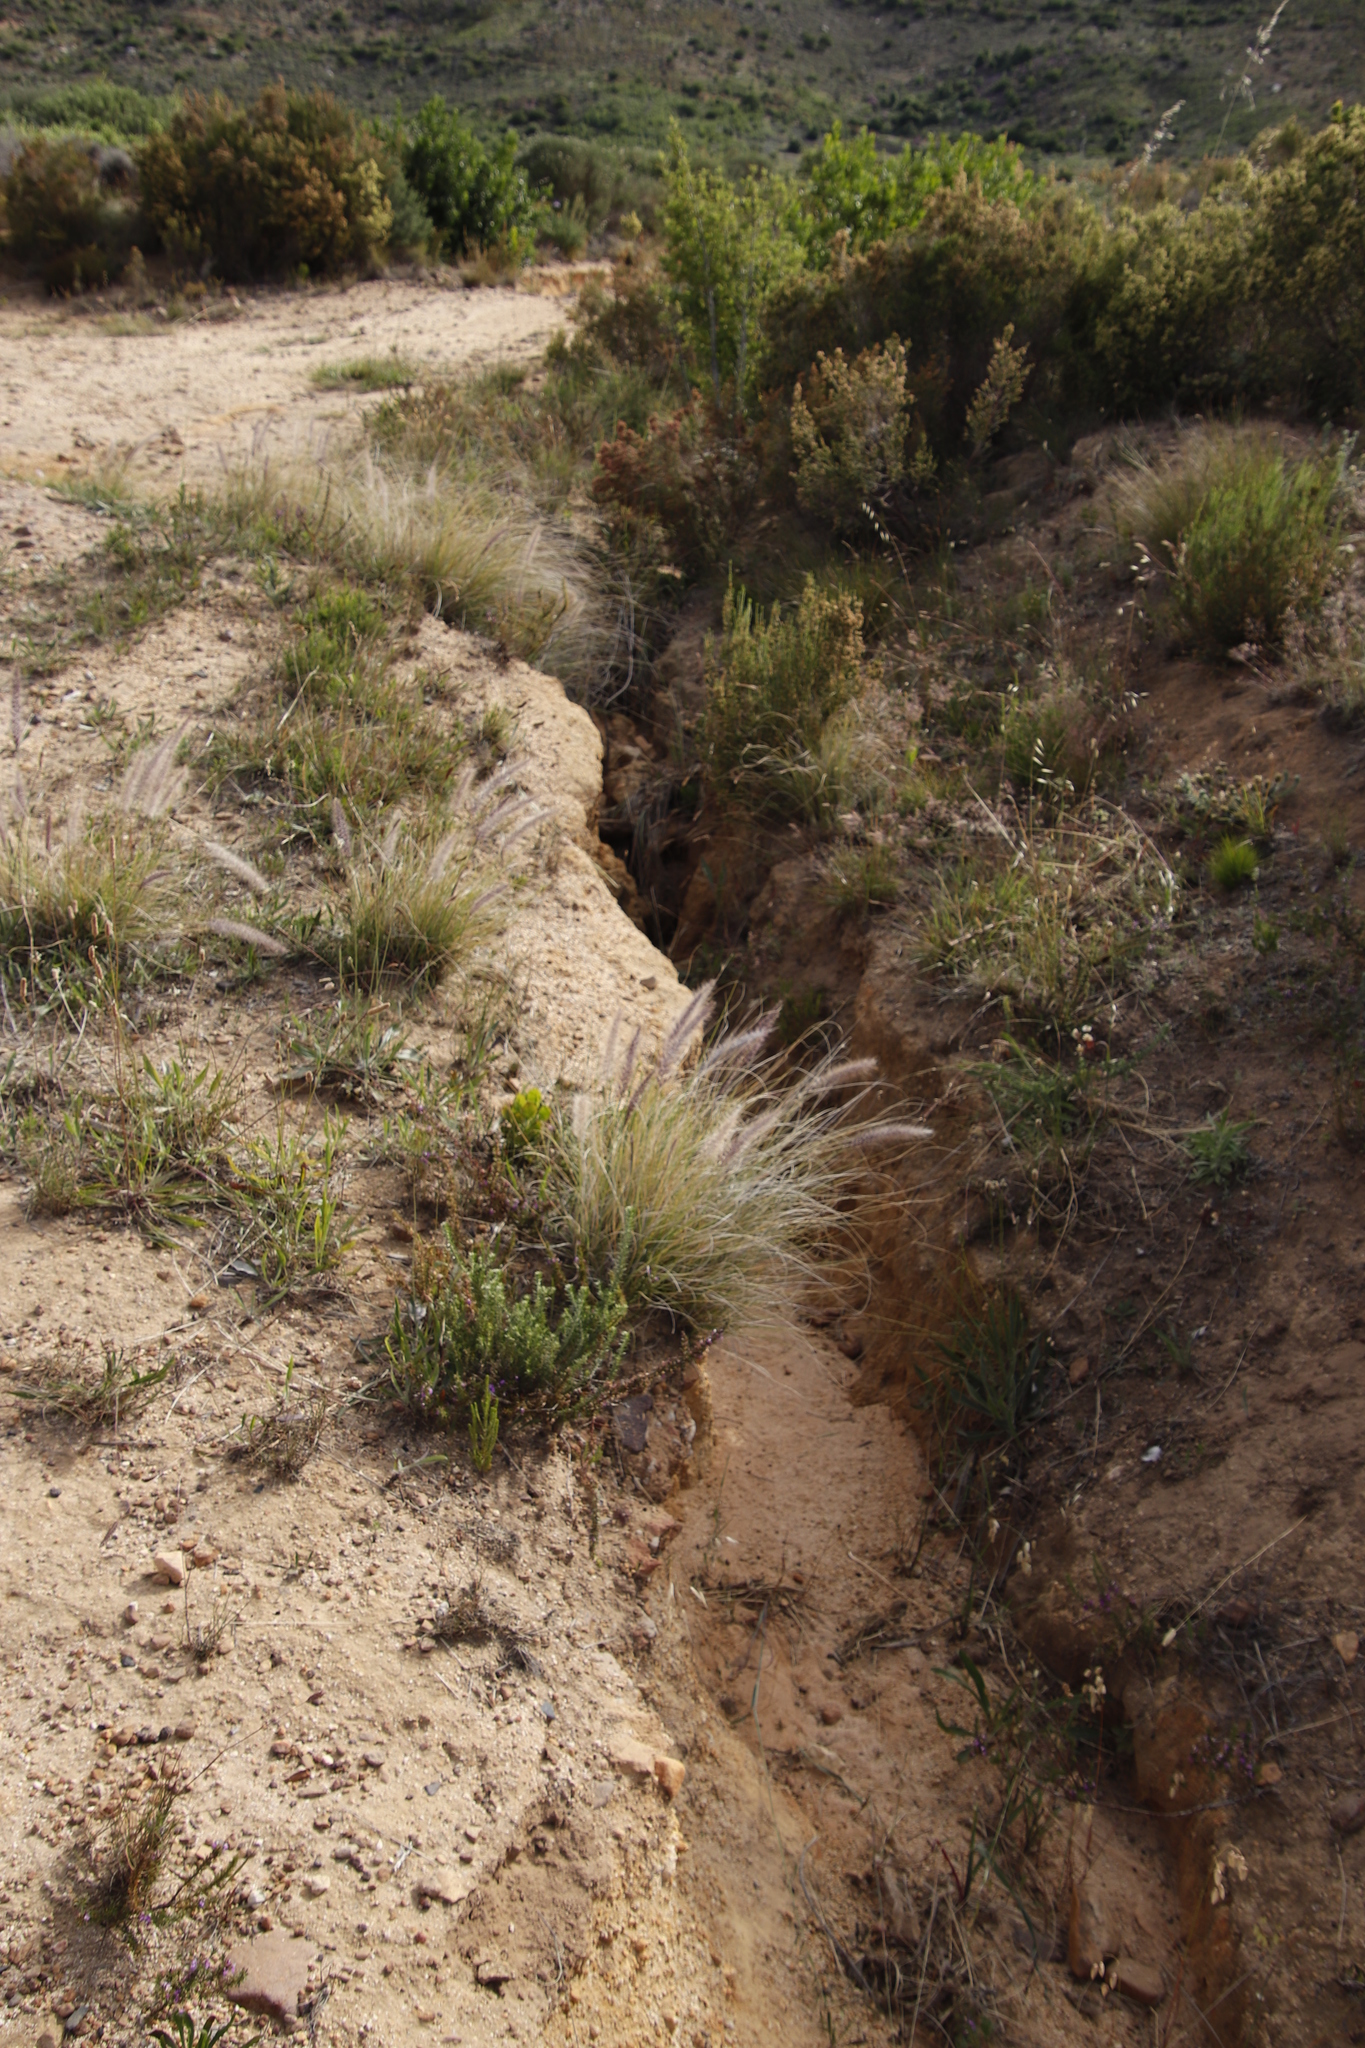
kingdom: Plantae
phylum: Tracheophyta
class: Liliopsida
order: Poales
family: Poaceae
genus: Cenchrus
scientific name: Cenchrus setaceus
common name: Crimson fountaingrass
